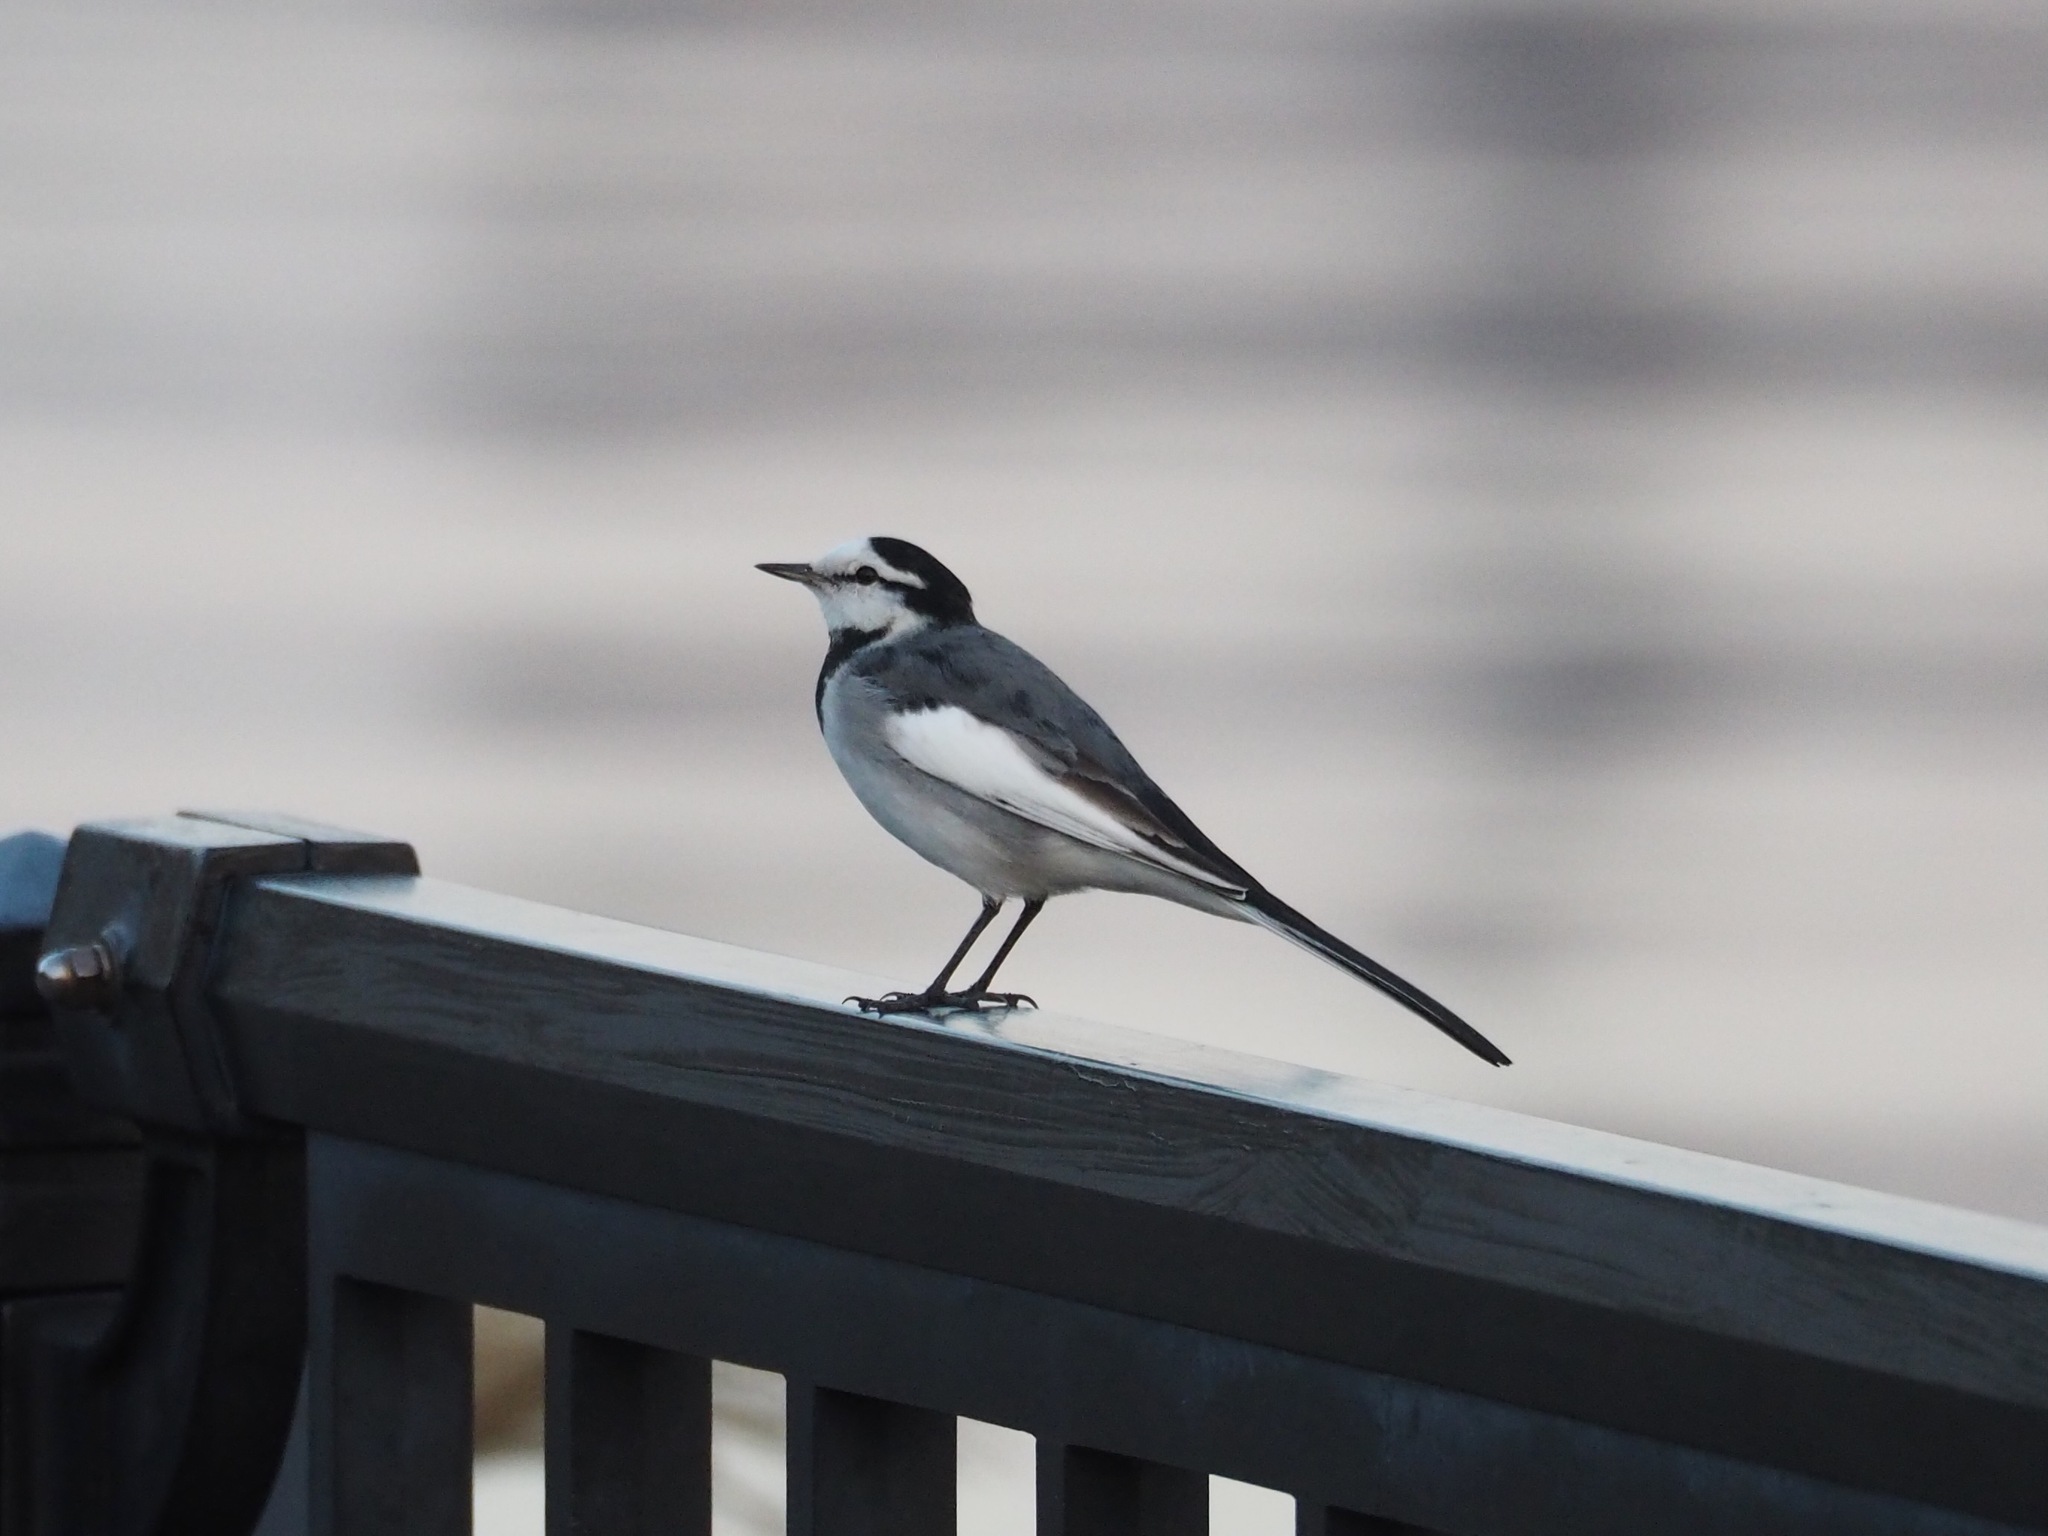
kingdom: Animalia
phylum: Chordata
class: Aves
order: Passeriformes
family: Motacillidae
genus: Motacilla
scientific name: Motacilla alba
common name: White wagtail
